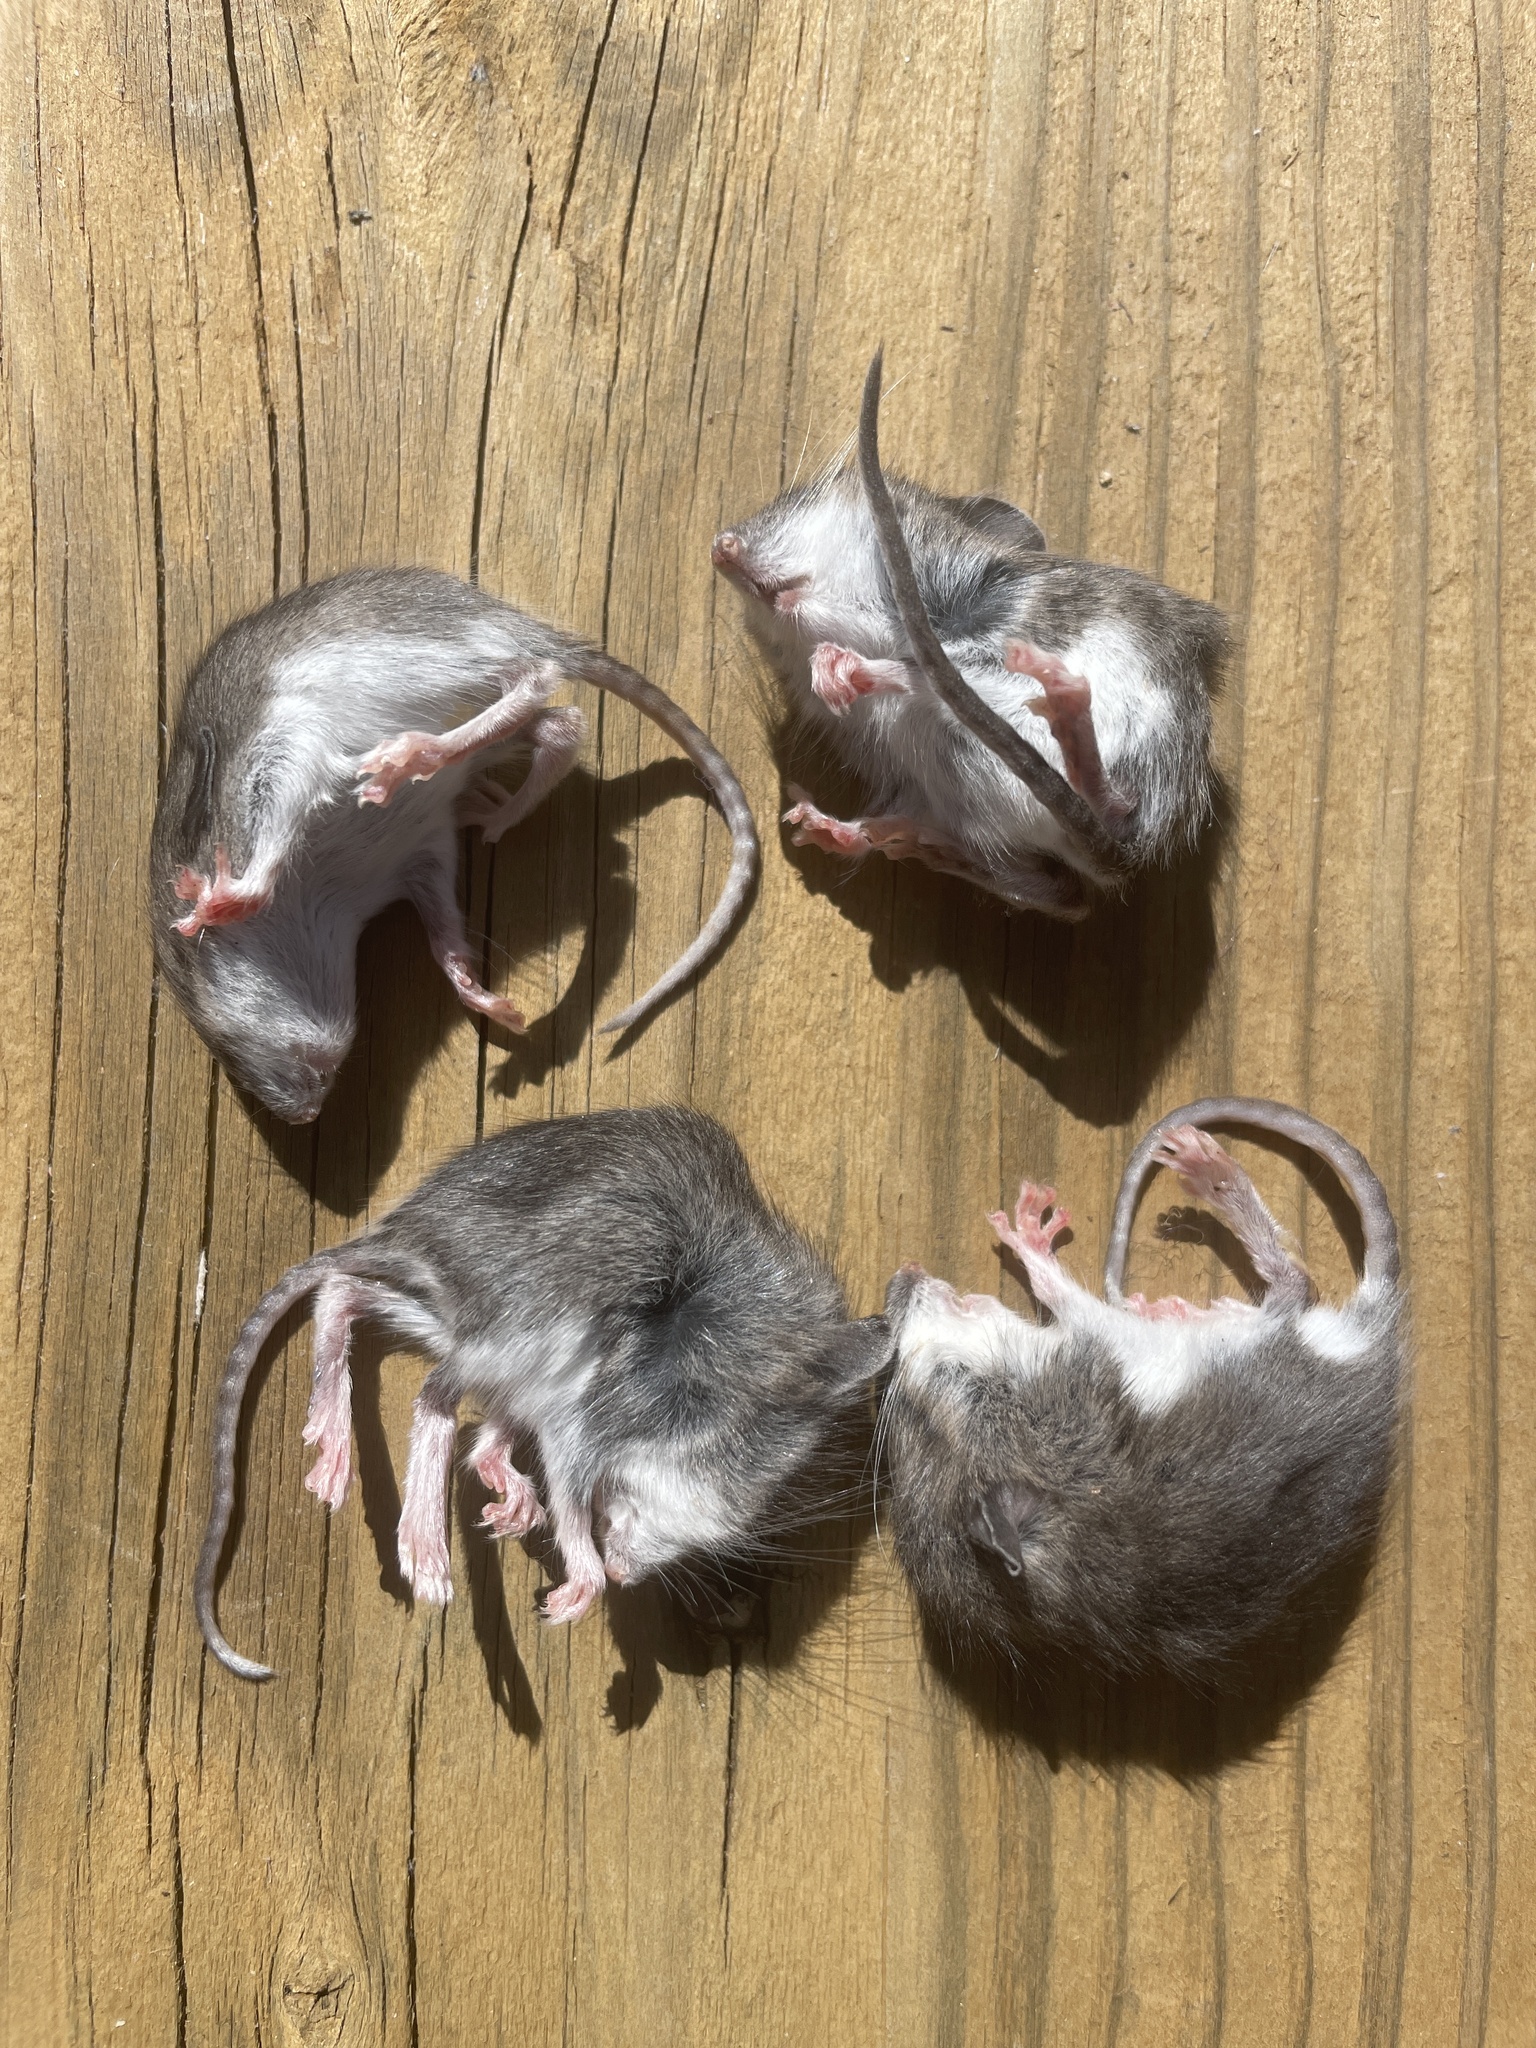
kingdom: Animalia
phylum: Chordata
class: Mammalia
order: Rodentia
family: Cricetidae
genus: Peromyscus
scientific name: Peromyscus leucopus
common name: White-footed deermouse
